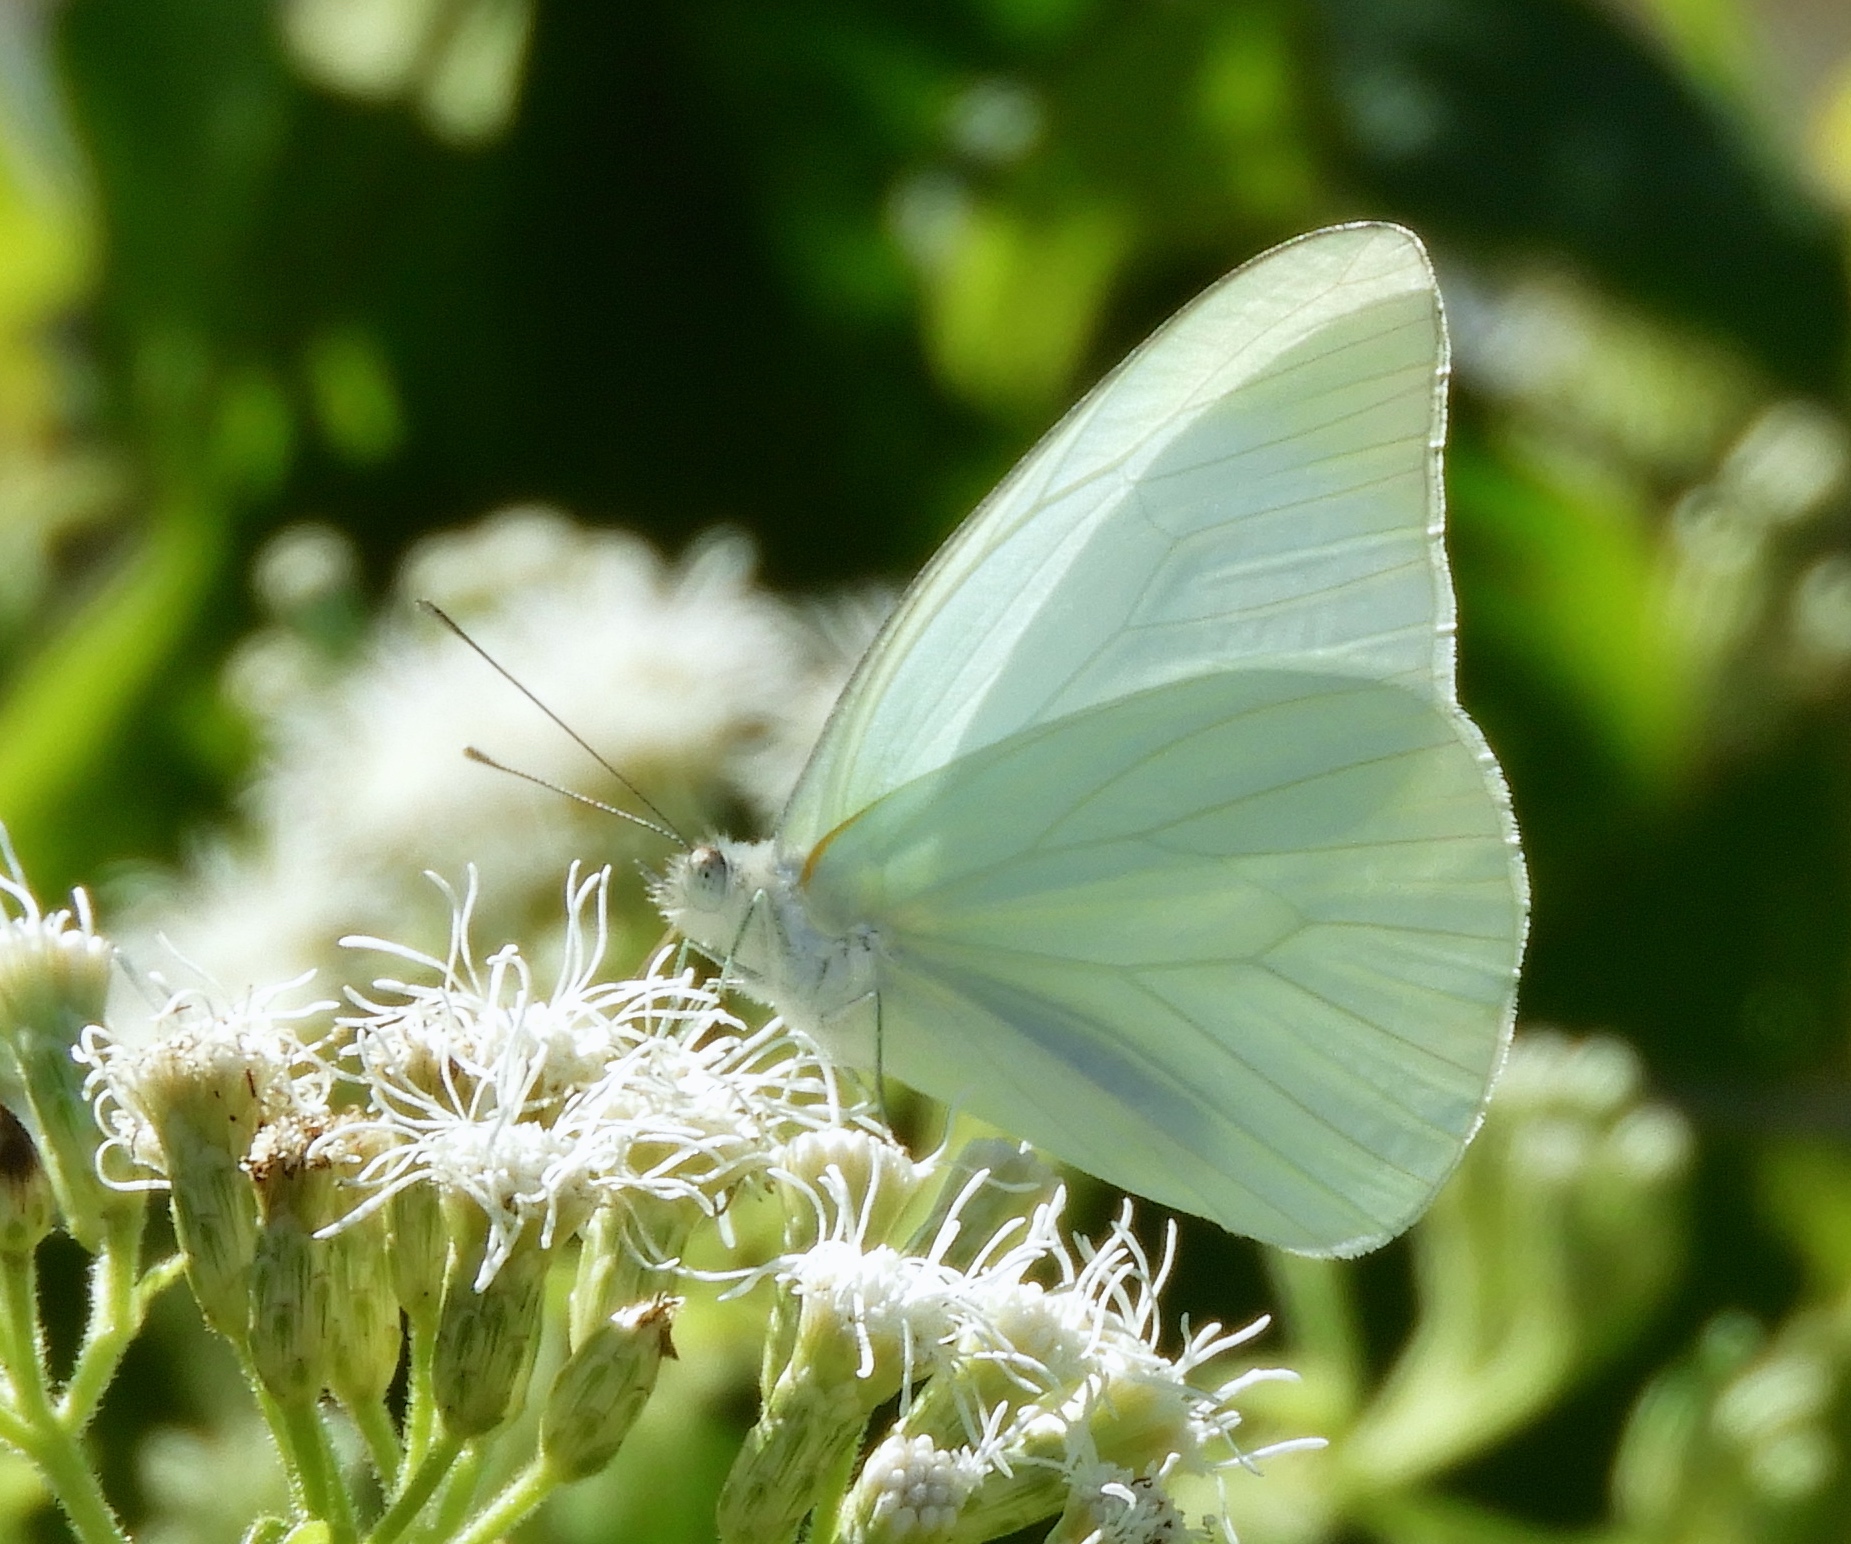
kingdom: Animalia
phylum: Arthropoda
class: Insecta
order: Lepidoptera
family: Pieridae
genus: Glutophrissa
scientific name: Glutophrissa drusilla
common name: Florida white
